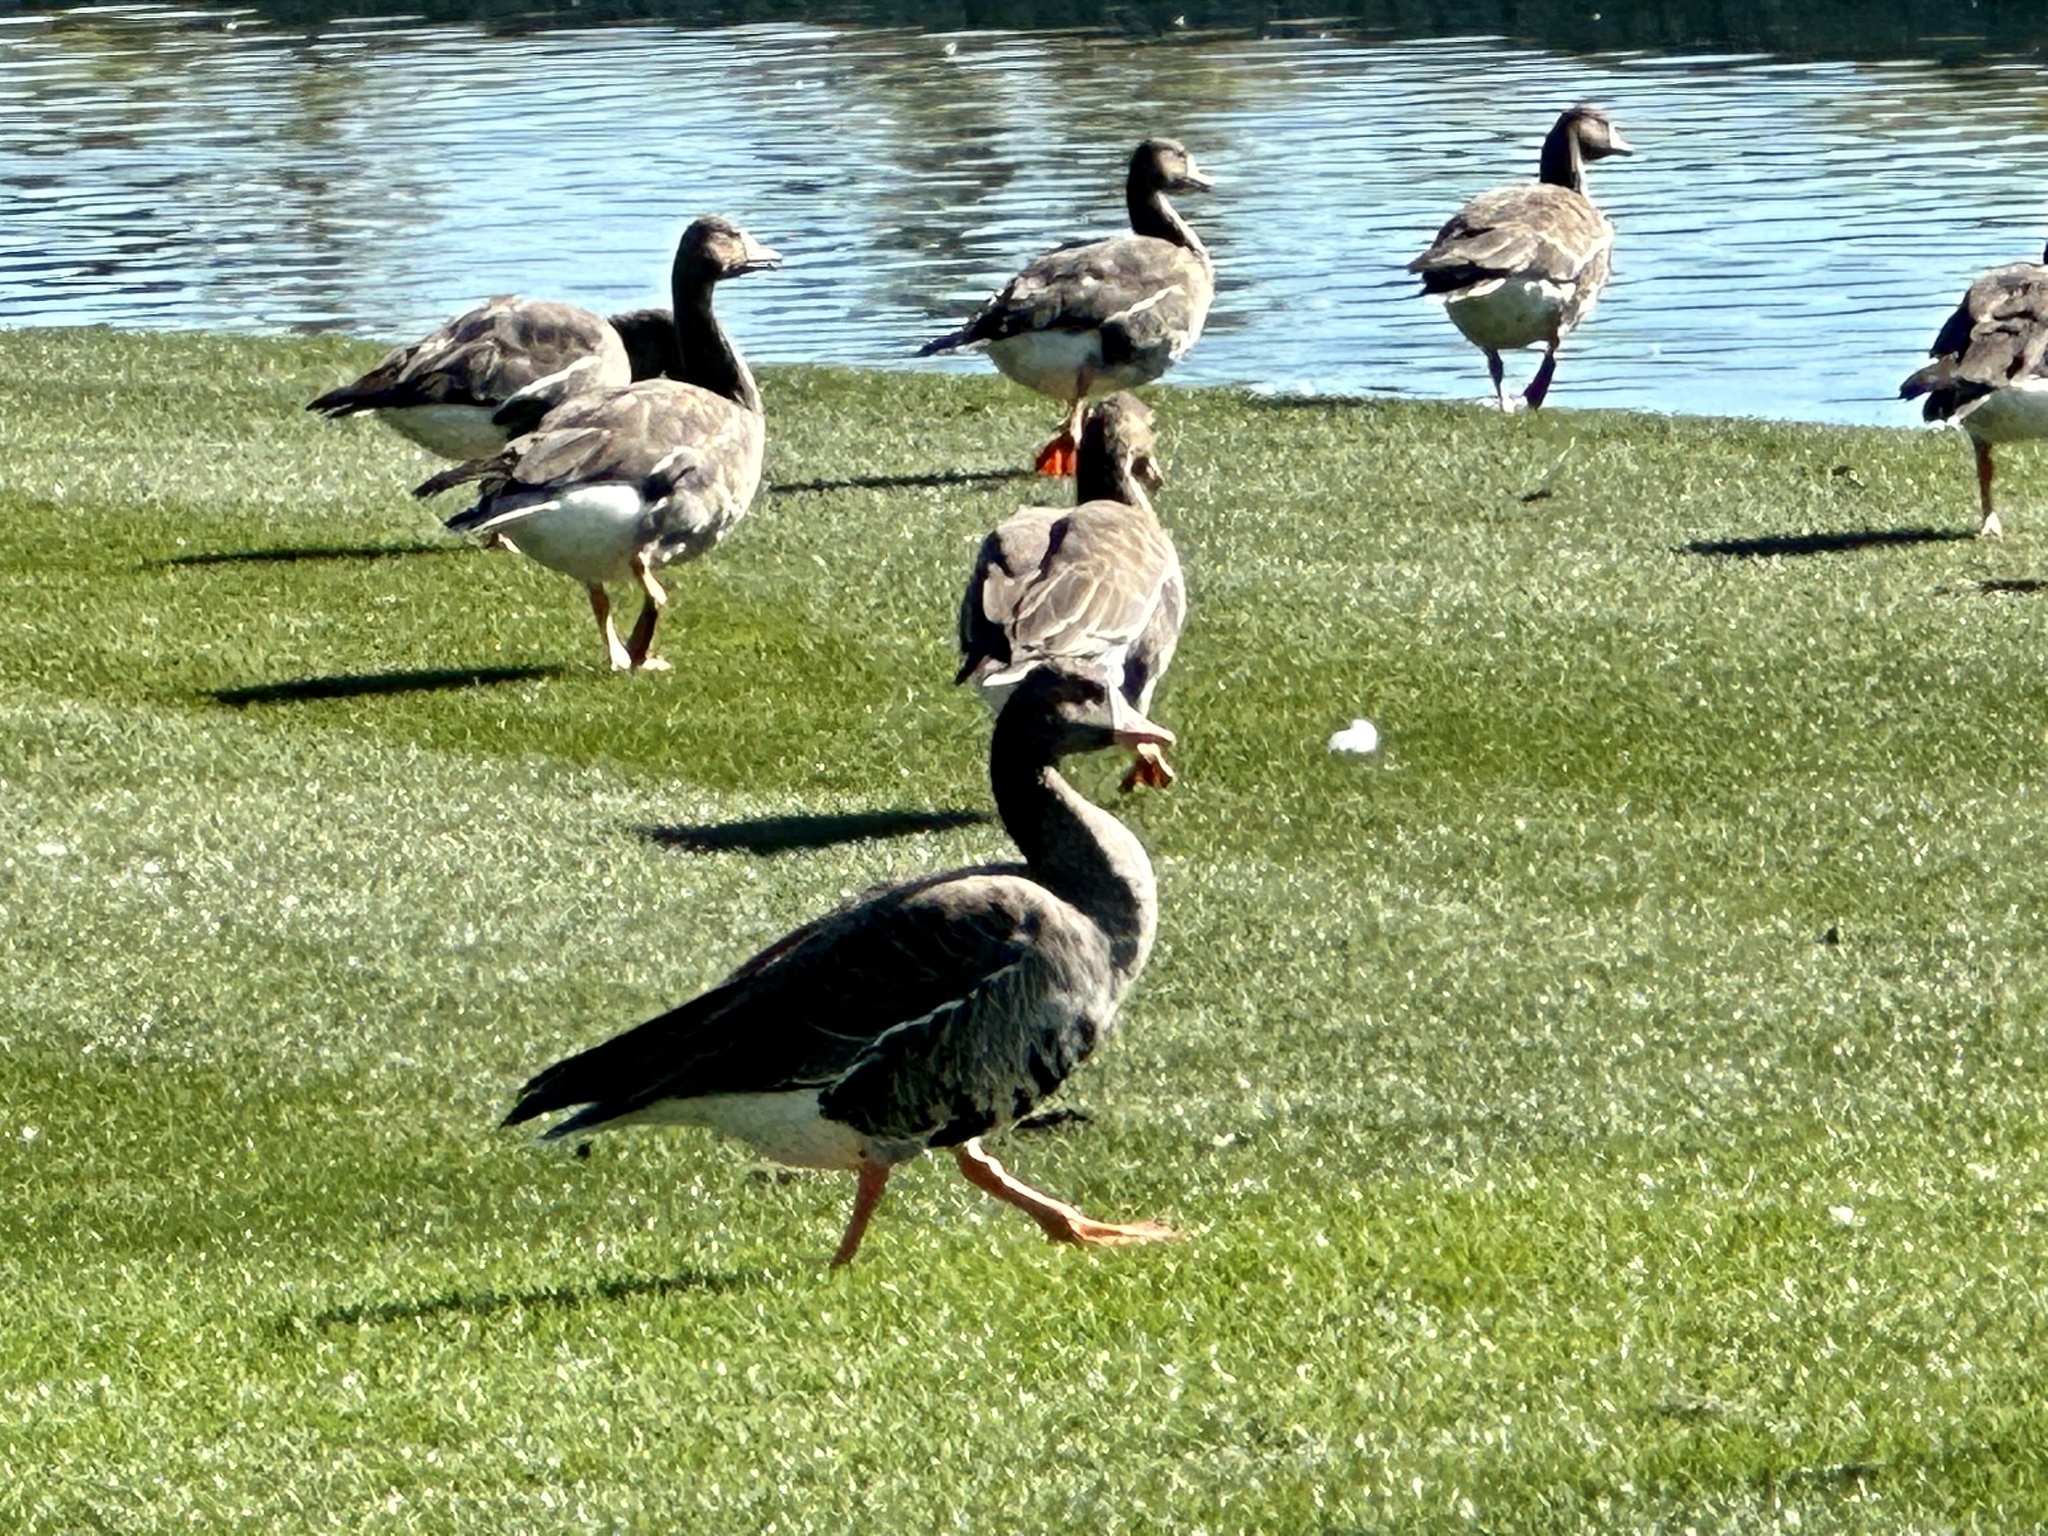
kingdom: Animalia
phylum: Chordata
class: Aves
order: Anseriformes
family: Anatidae
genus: Anser
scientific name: Anser albifrons
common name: Greater white-fronted goose
